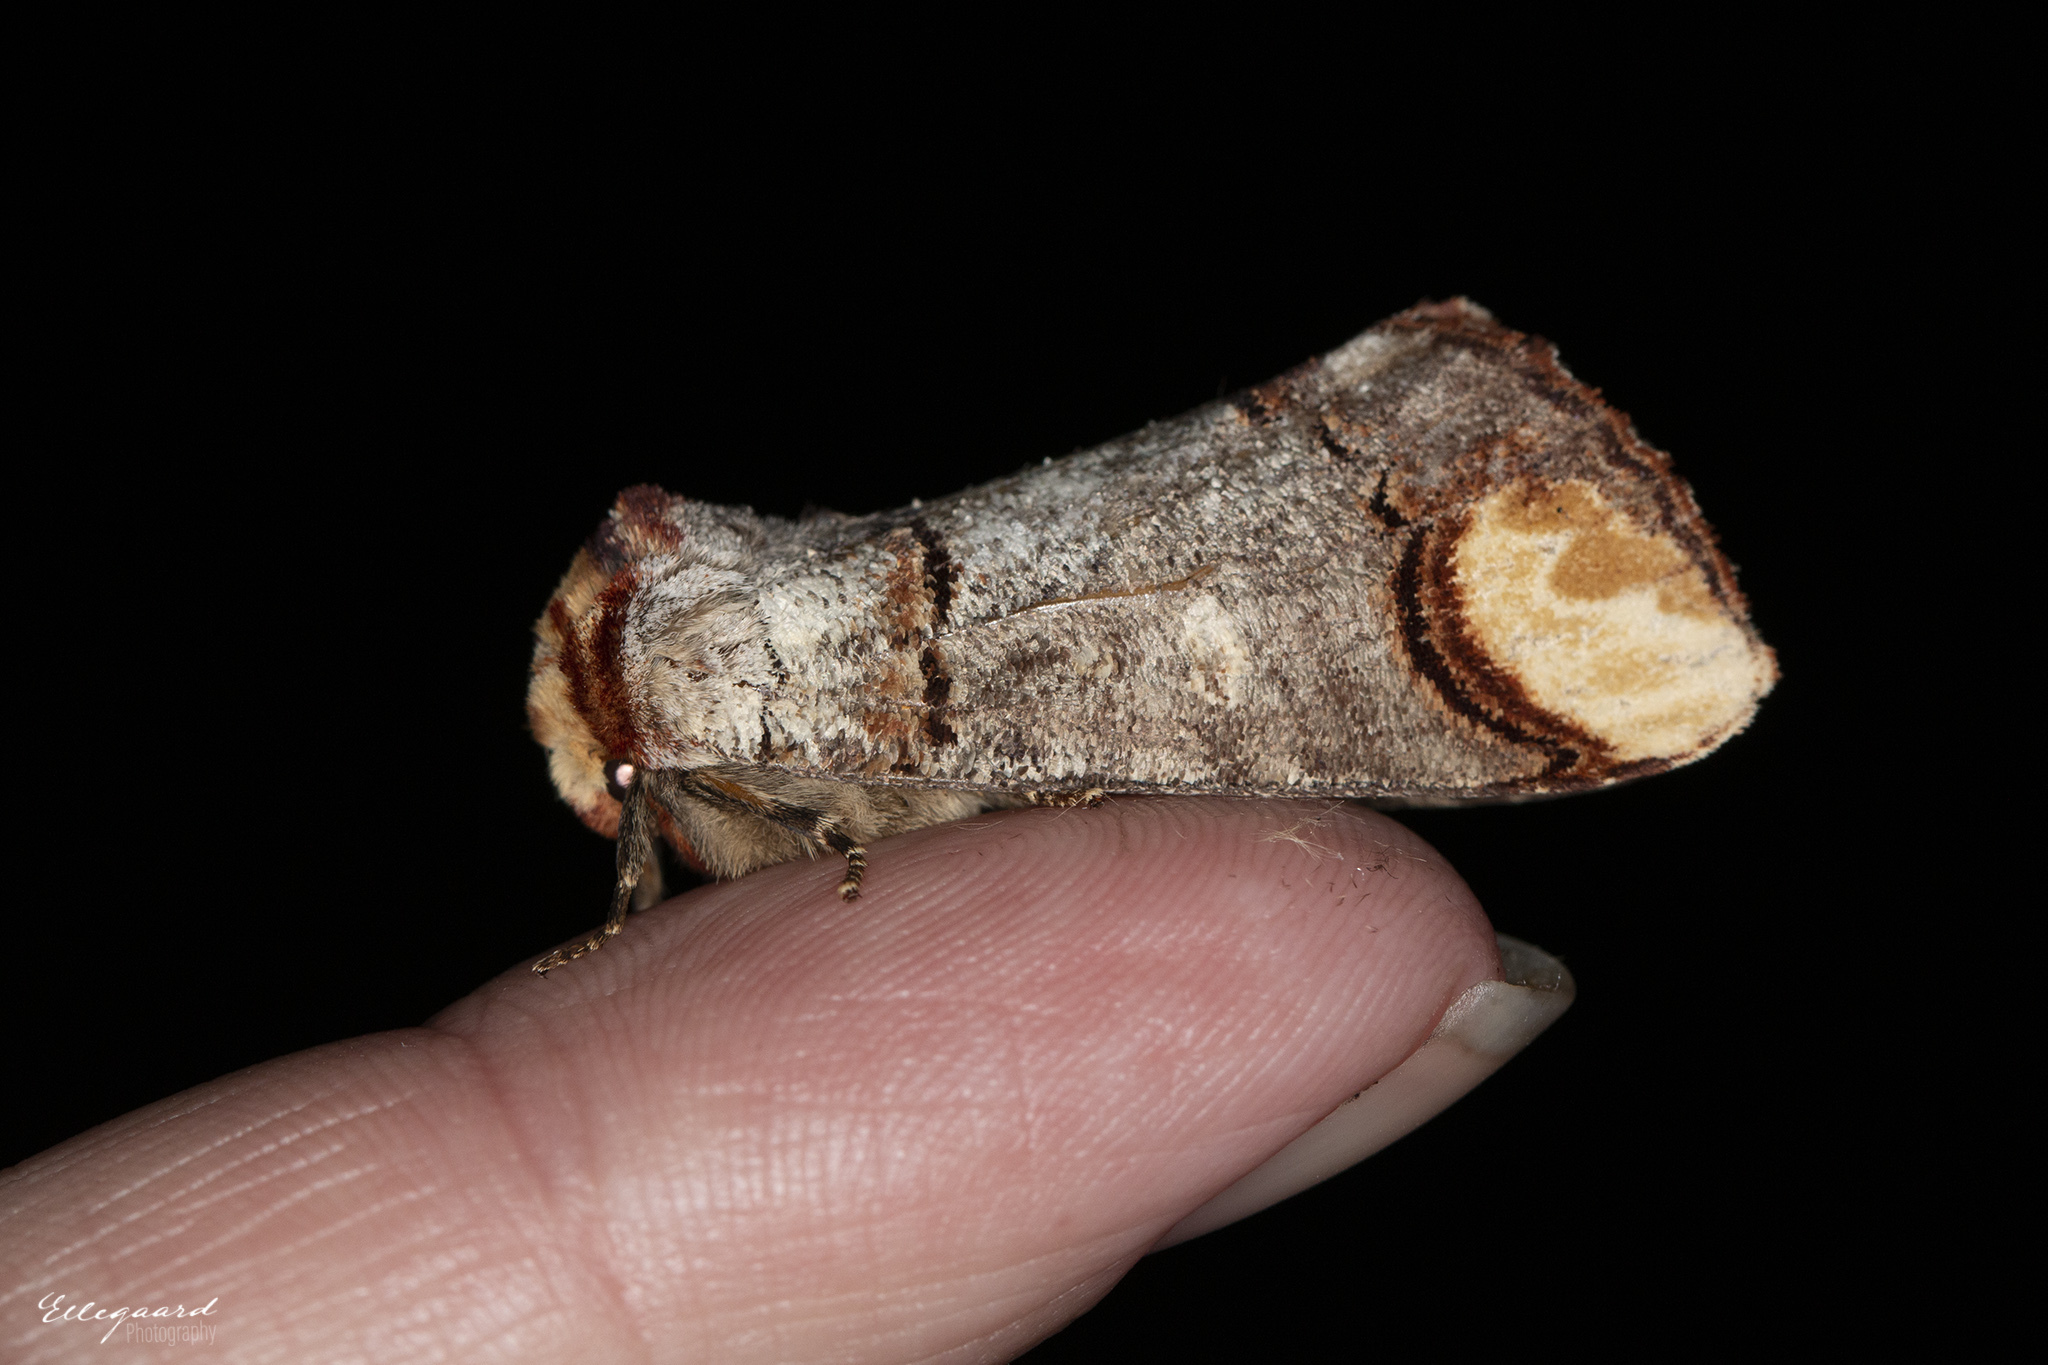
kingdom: Animalia
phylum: Arthropoda
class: Insecta
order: Lepidoptera
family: Notodontidae
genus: Phalera
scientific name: Phalera bucephala
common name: Buff-tip
